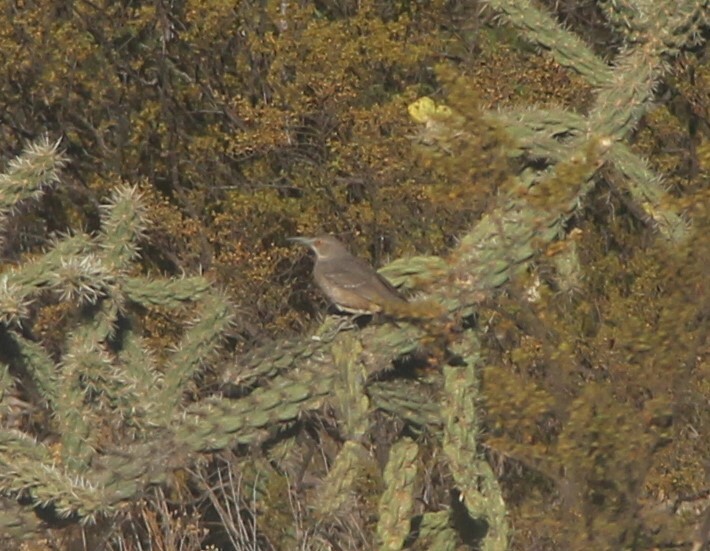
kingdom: Animalia
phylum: Chordata
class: Aves
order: Passeriformes
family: Mimidae
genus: Toxostoma
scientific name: Toxostoma curvirostre
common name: Curve-billed thrasher
